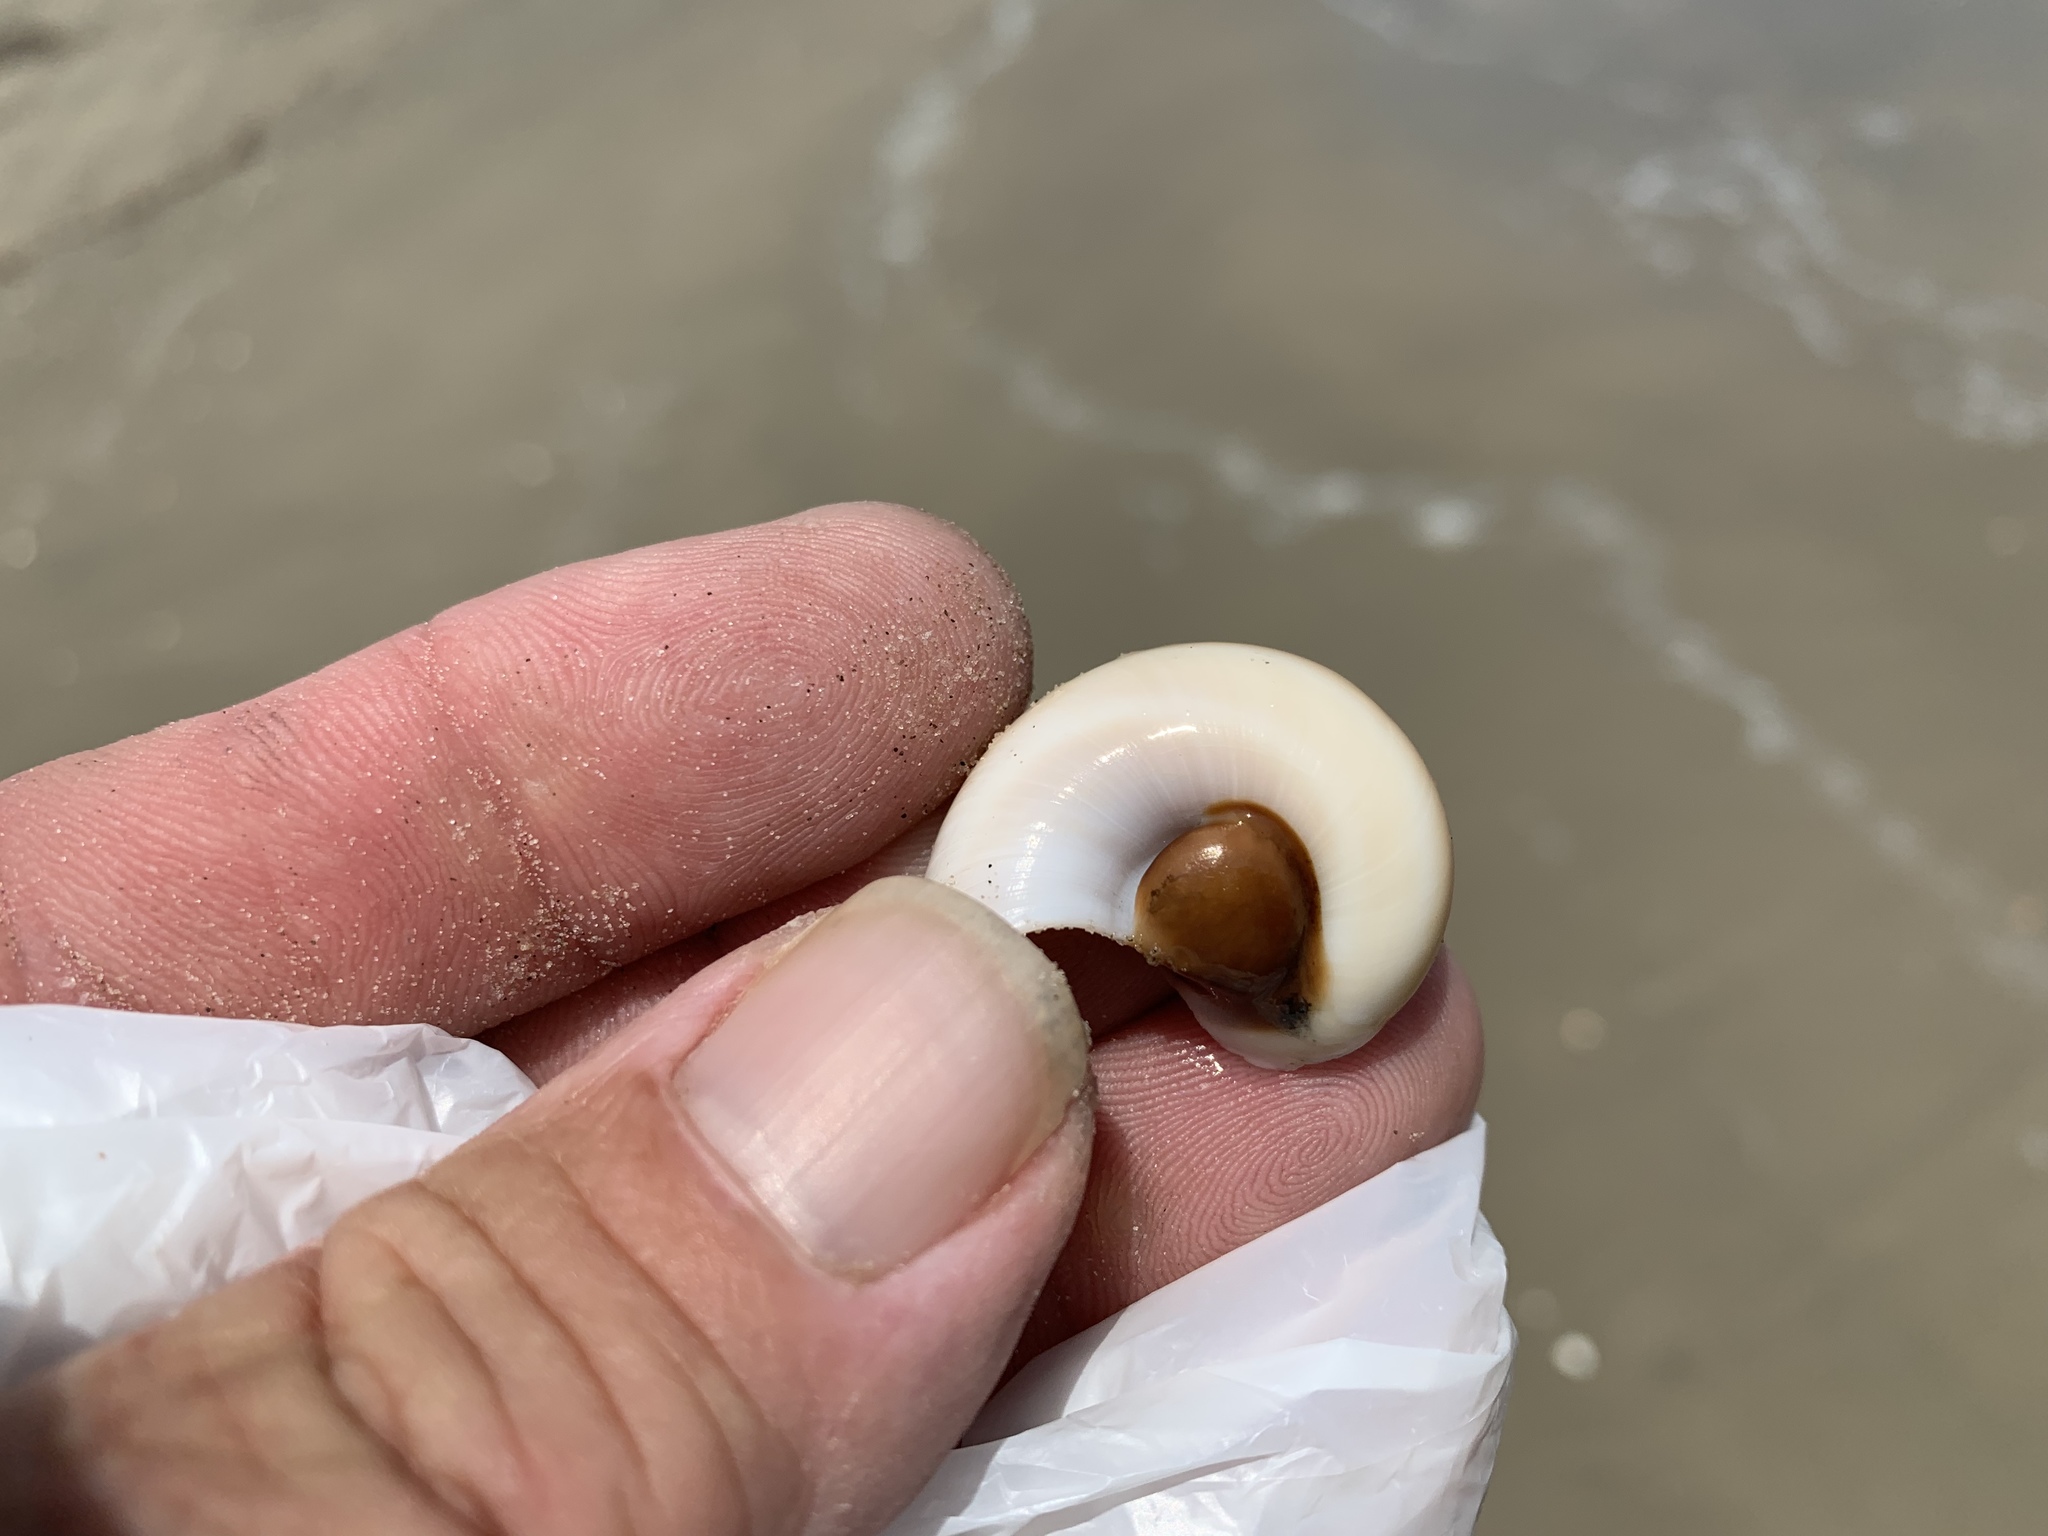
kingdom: Animalia
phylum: Mollusca
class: Gastropoda
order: Littorinimorpha
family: Naticidae
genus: Neverita
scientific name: Neverita duplicata
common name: Lobed moonsnail
